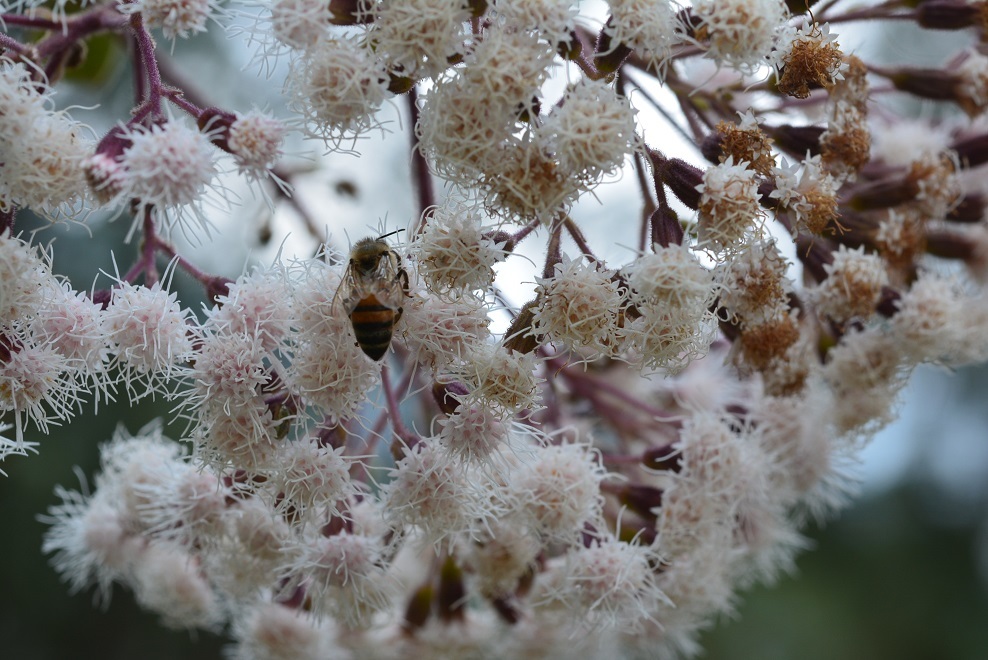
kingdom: Plantae
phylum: Tracheophyta
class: Magnoliopsida
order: Asterales
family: Asteraceae
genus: Bartlettina
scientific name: Bartlettina sordida
